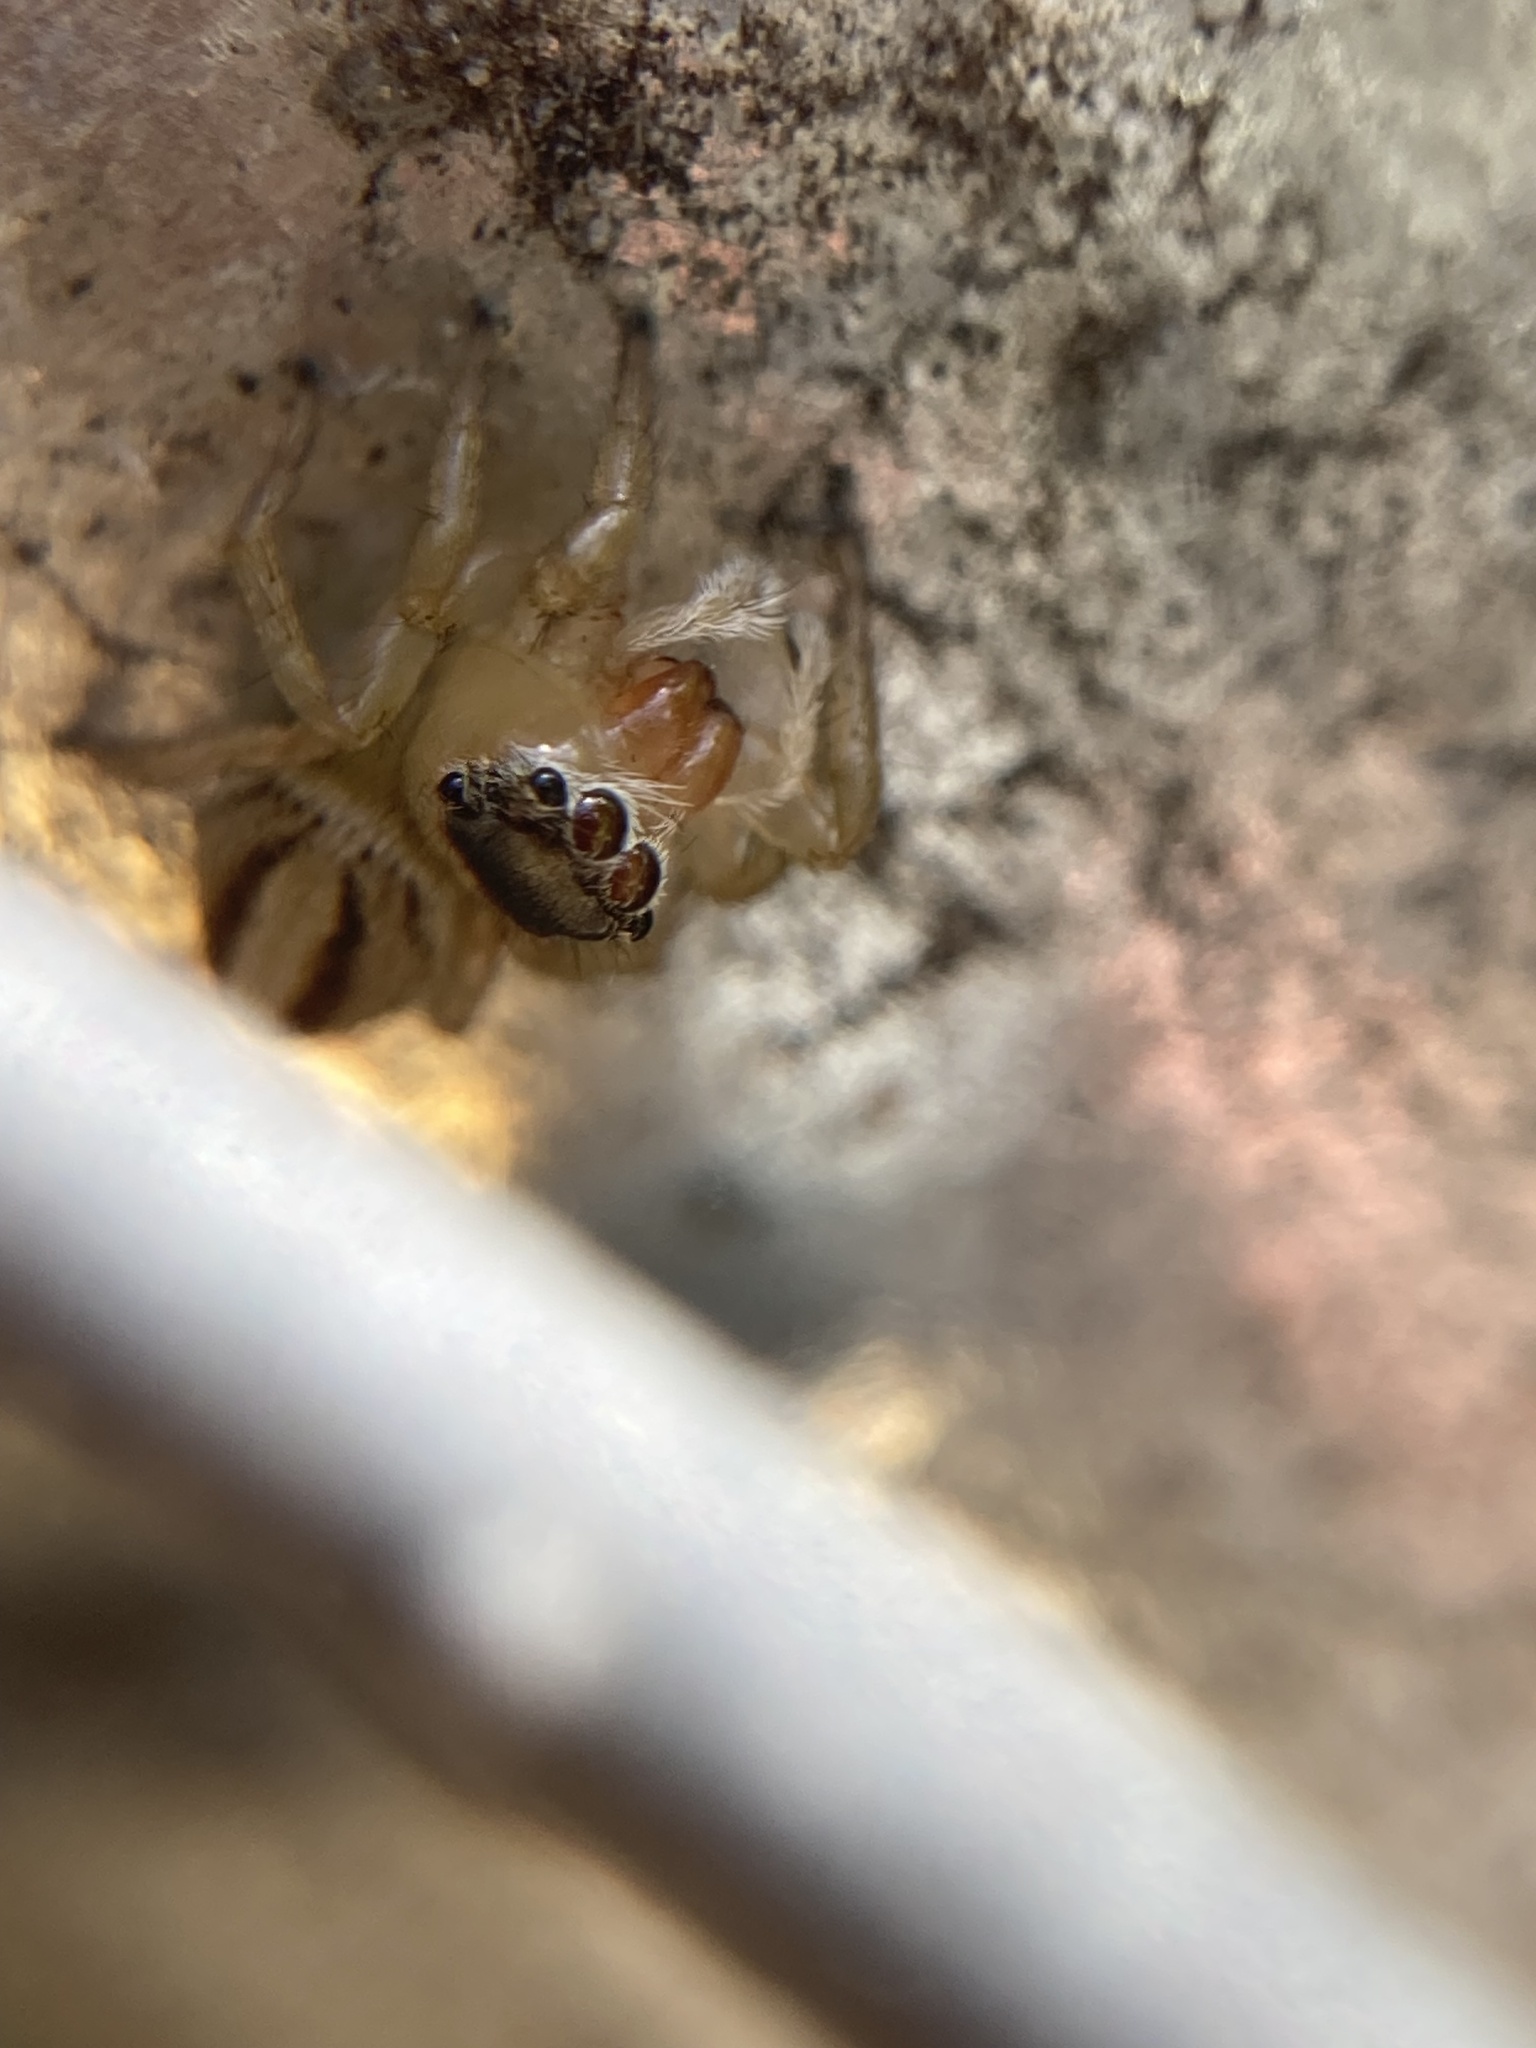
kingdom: Animalia
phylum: Arthropoda
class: Arachnida
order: Araneae
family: Salticidae
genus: Maratus
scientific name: Maratus scutulatus
